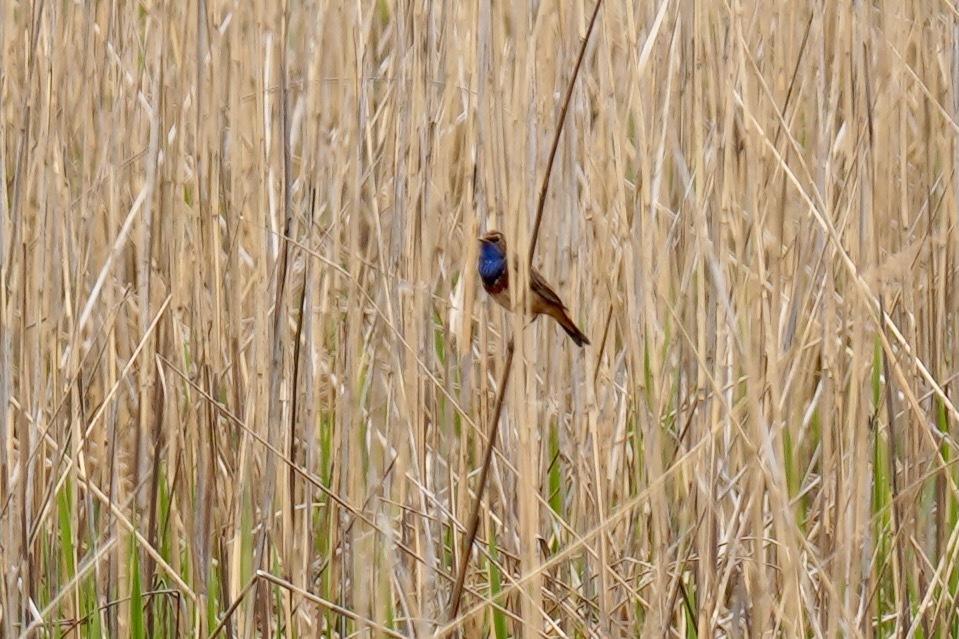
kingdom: Animalia
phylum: Chordata
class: Aves
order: Passeriformes
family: Muscicapidae
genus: Luscinia
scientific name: Luscinia svecica
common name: Bluethroat
